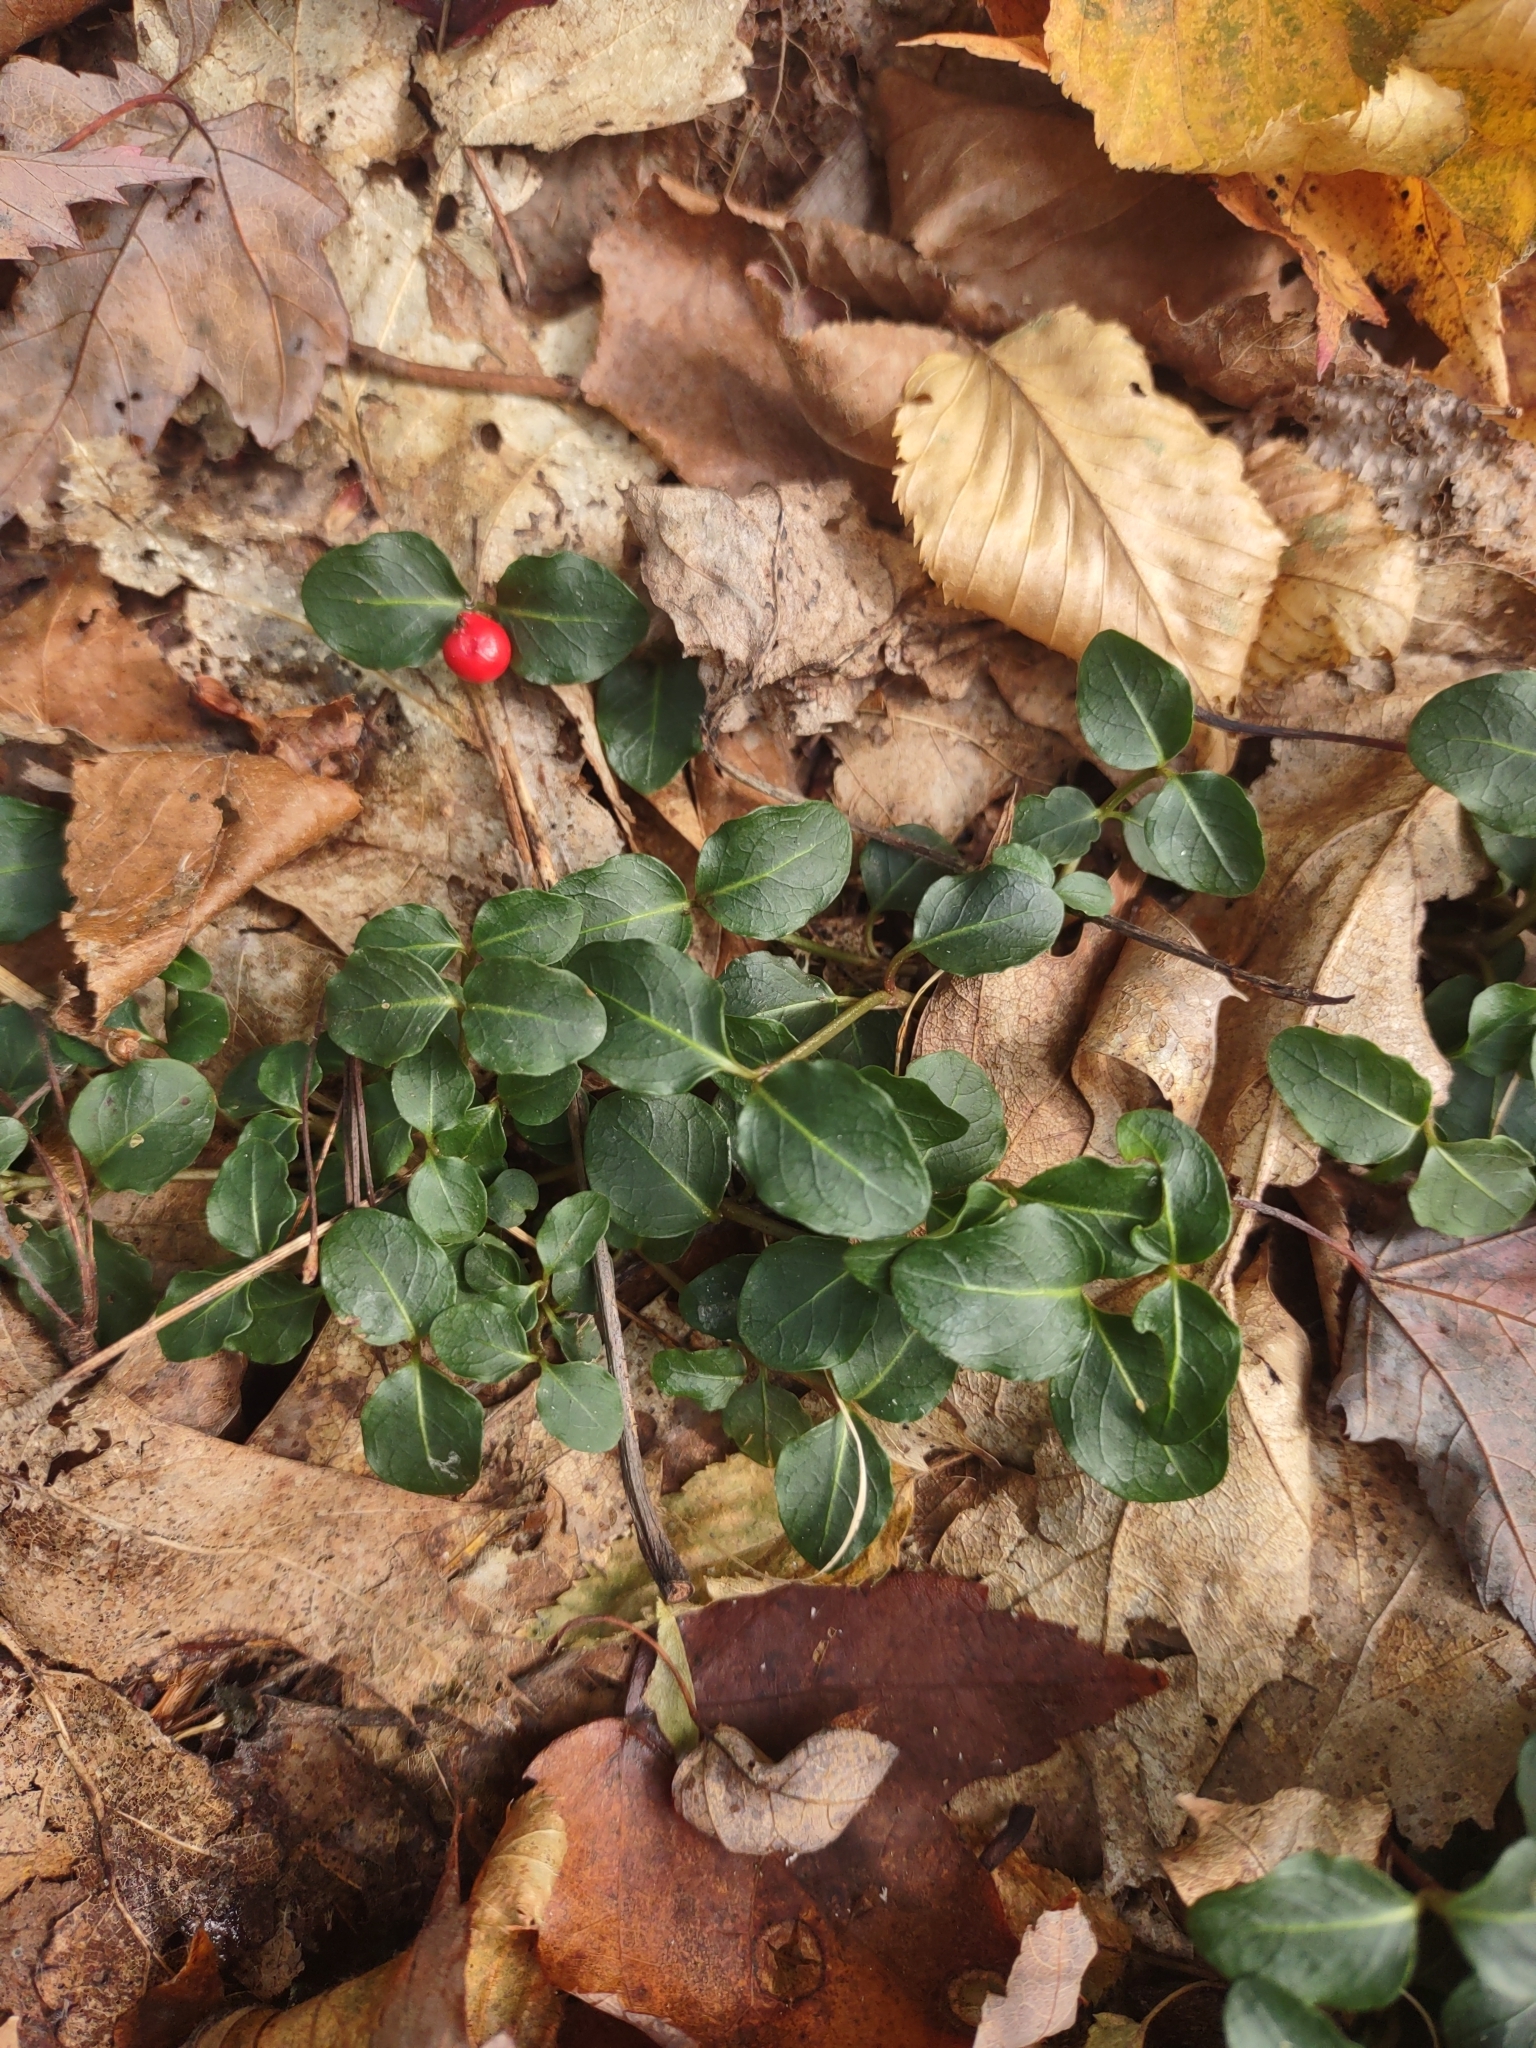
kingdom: Plantae
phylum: Tracheophyta
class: Magnoliopsida
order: Gentianales
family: Rubiaceae
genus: Mitchella
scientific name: Mitchella repens
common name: Partridge-berry
